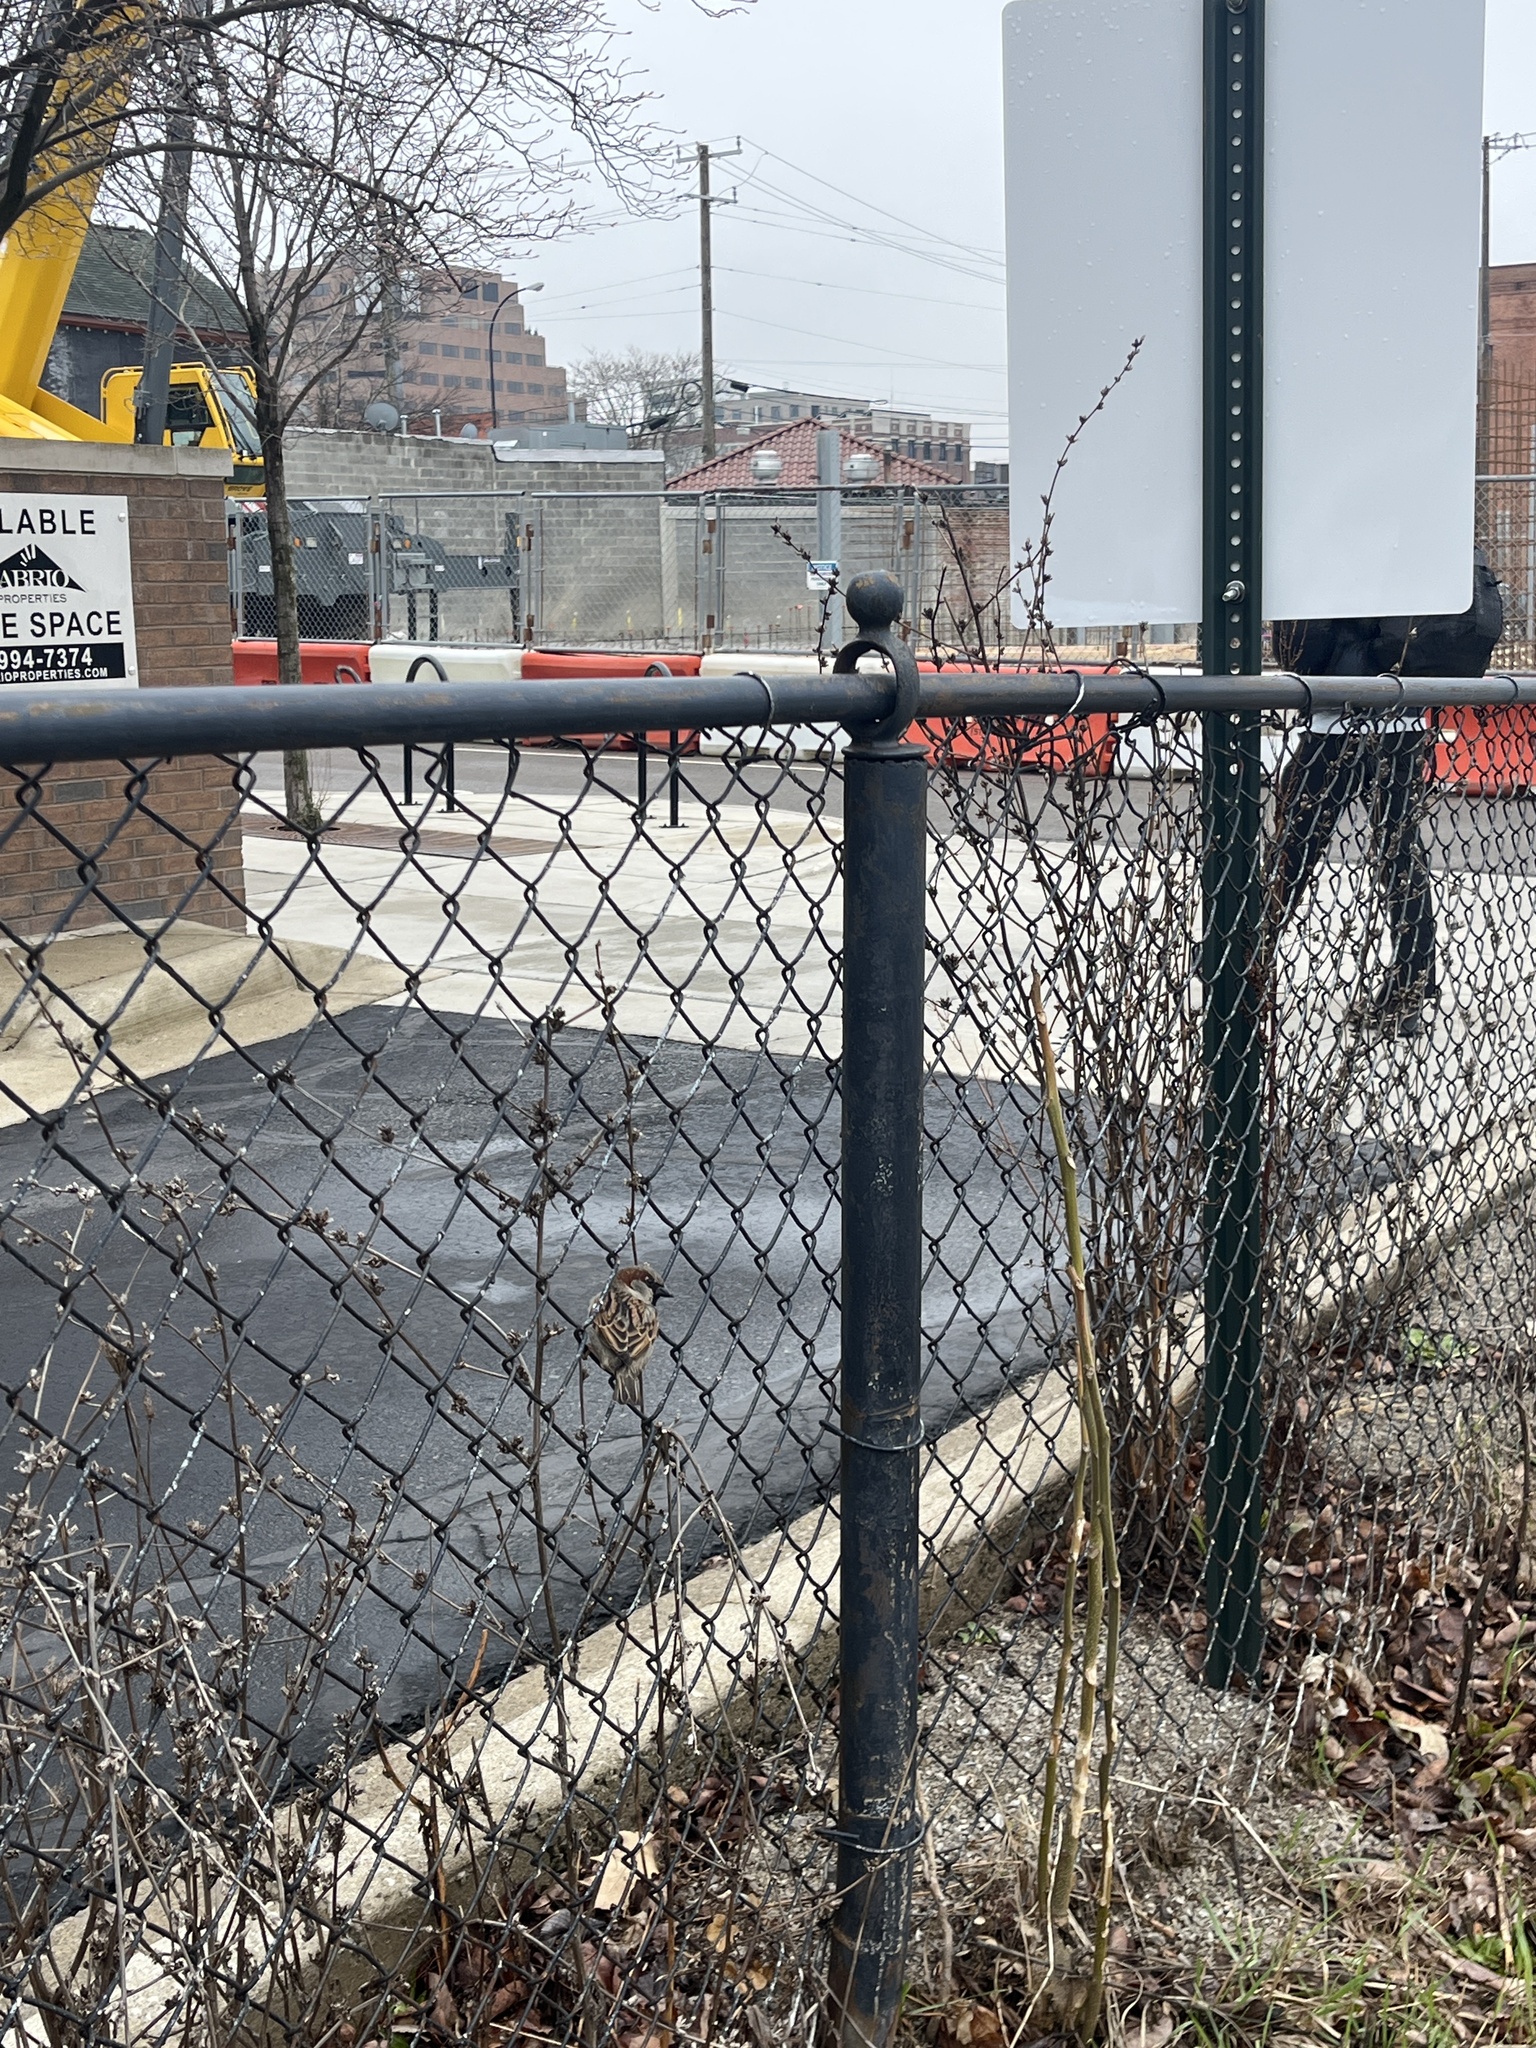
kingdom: Animalia
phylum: Chordata
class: Aves
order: Passeriformes
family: Passeridae
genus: Passer
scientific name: Passer domesticus
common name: House sparrow
